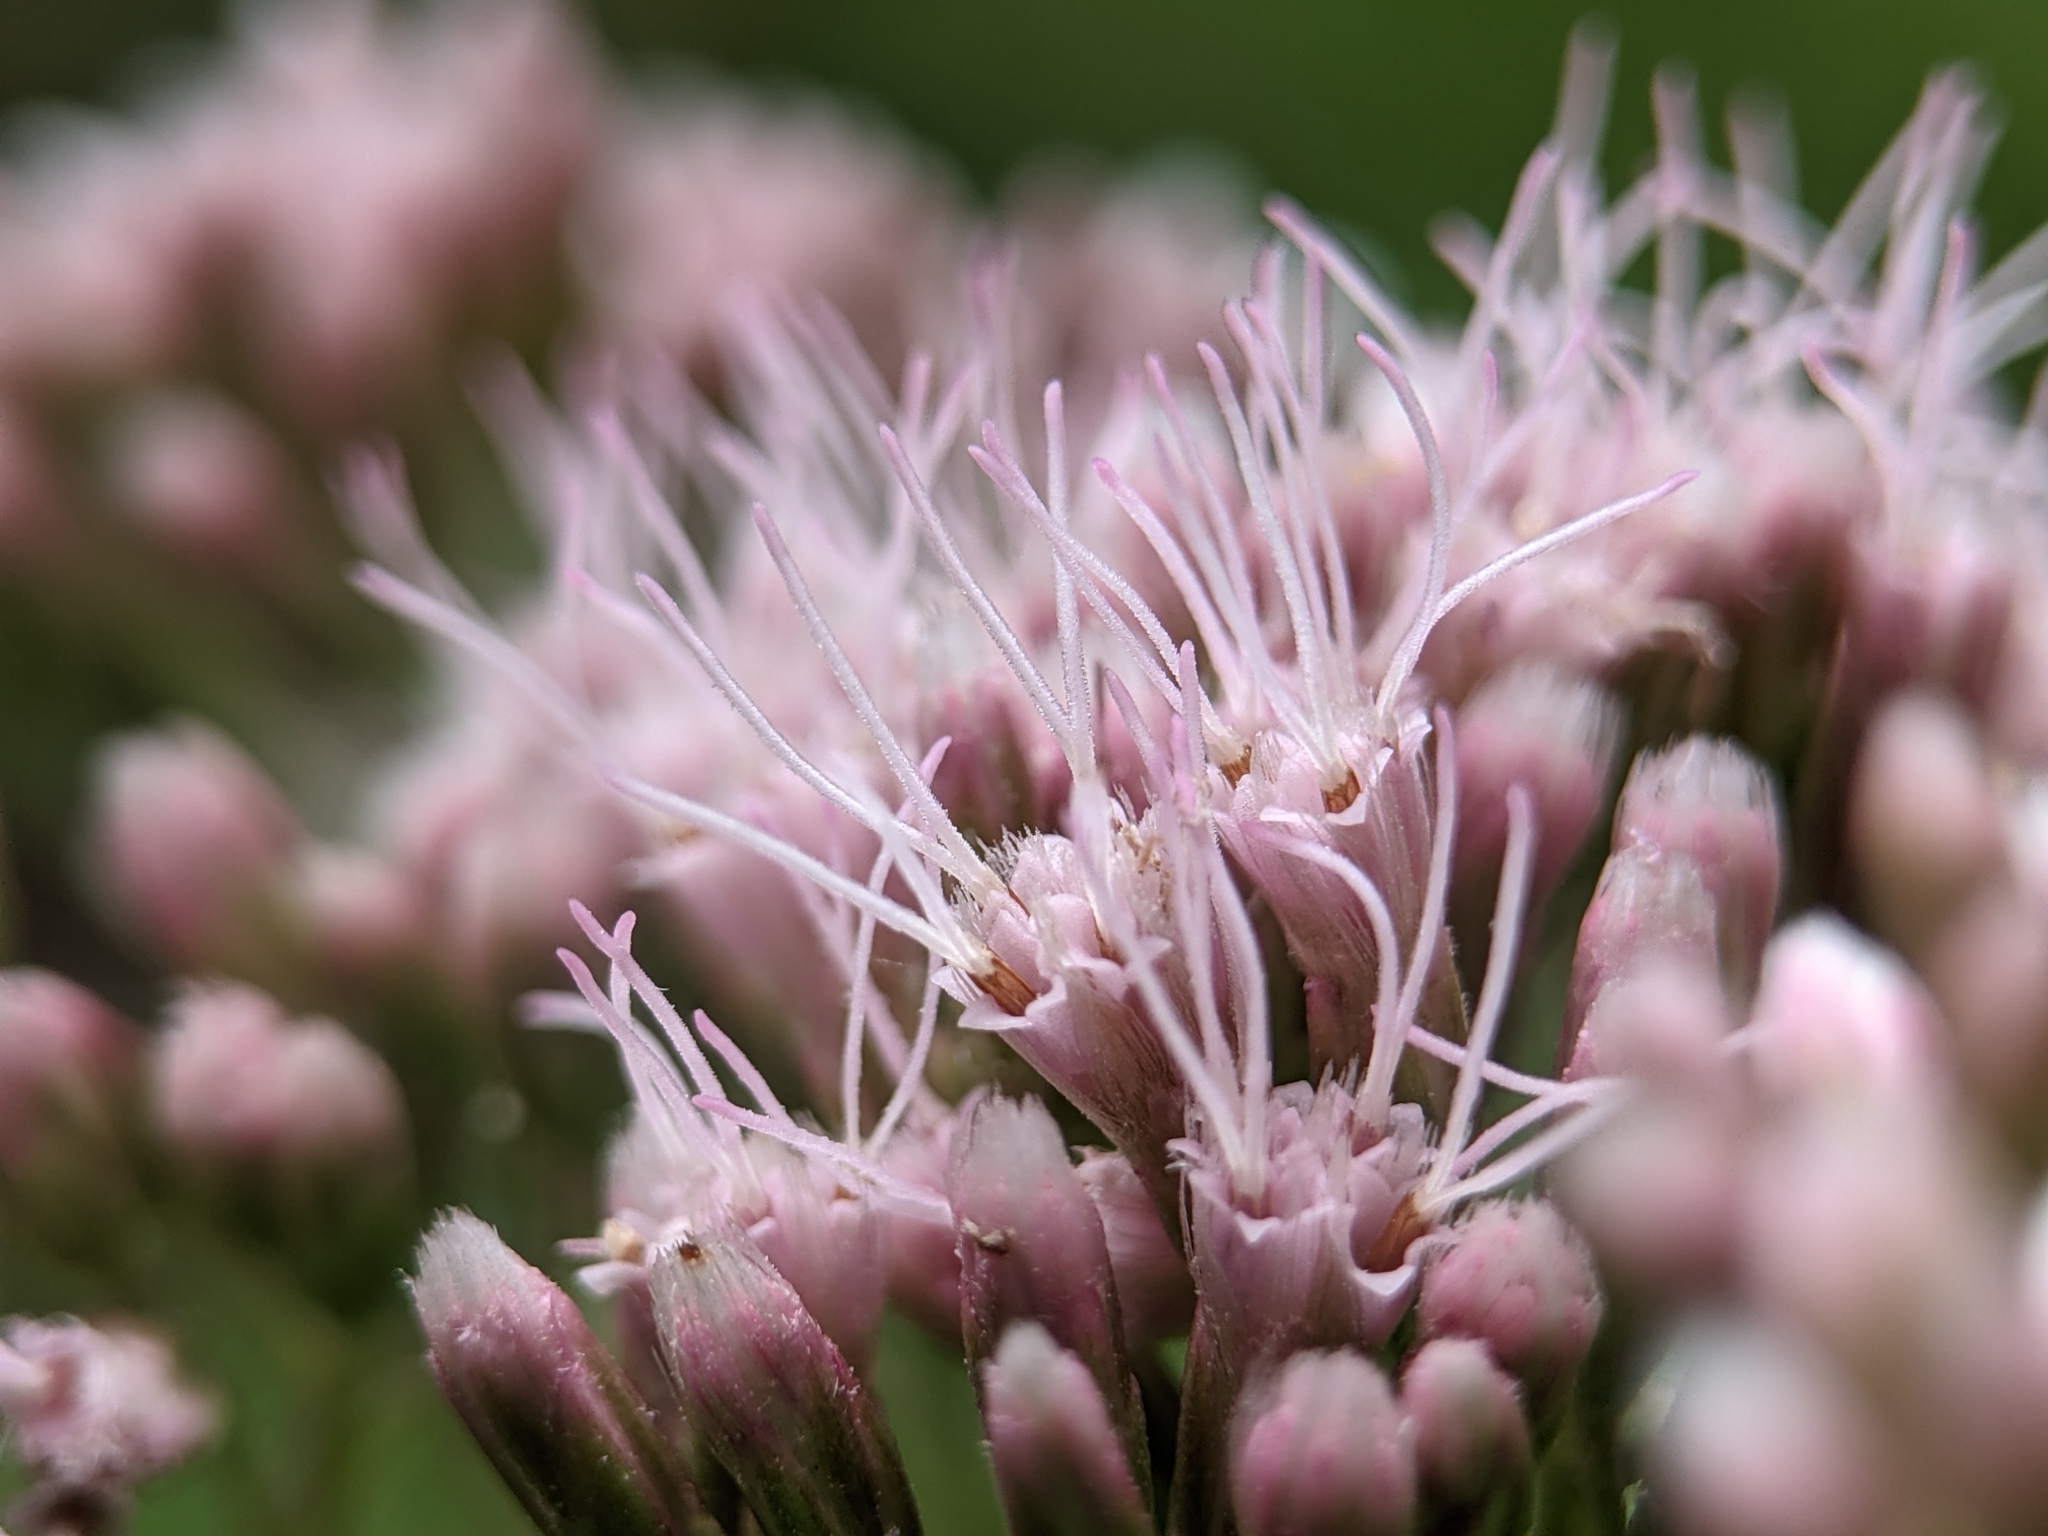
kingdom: Plantae
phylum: Tracheophyta
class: Magnoliopsida
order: Asterales
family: Asteraceae
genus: Eupatorium
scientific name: Eupatorium cannabinum
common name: Hemp-agrimony
